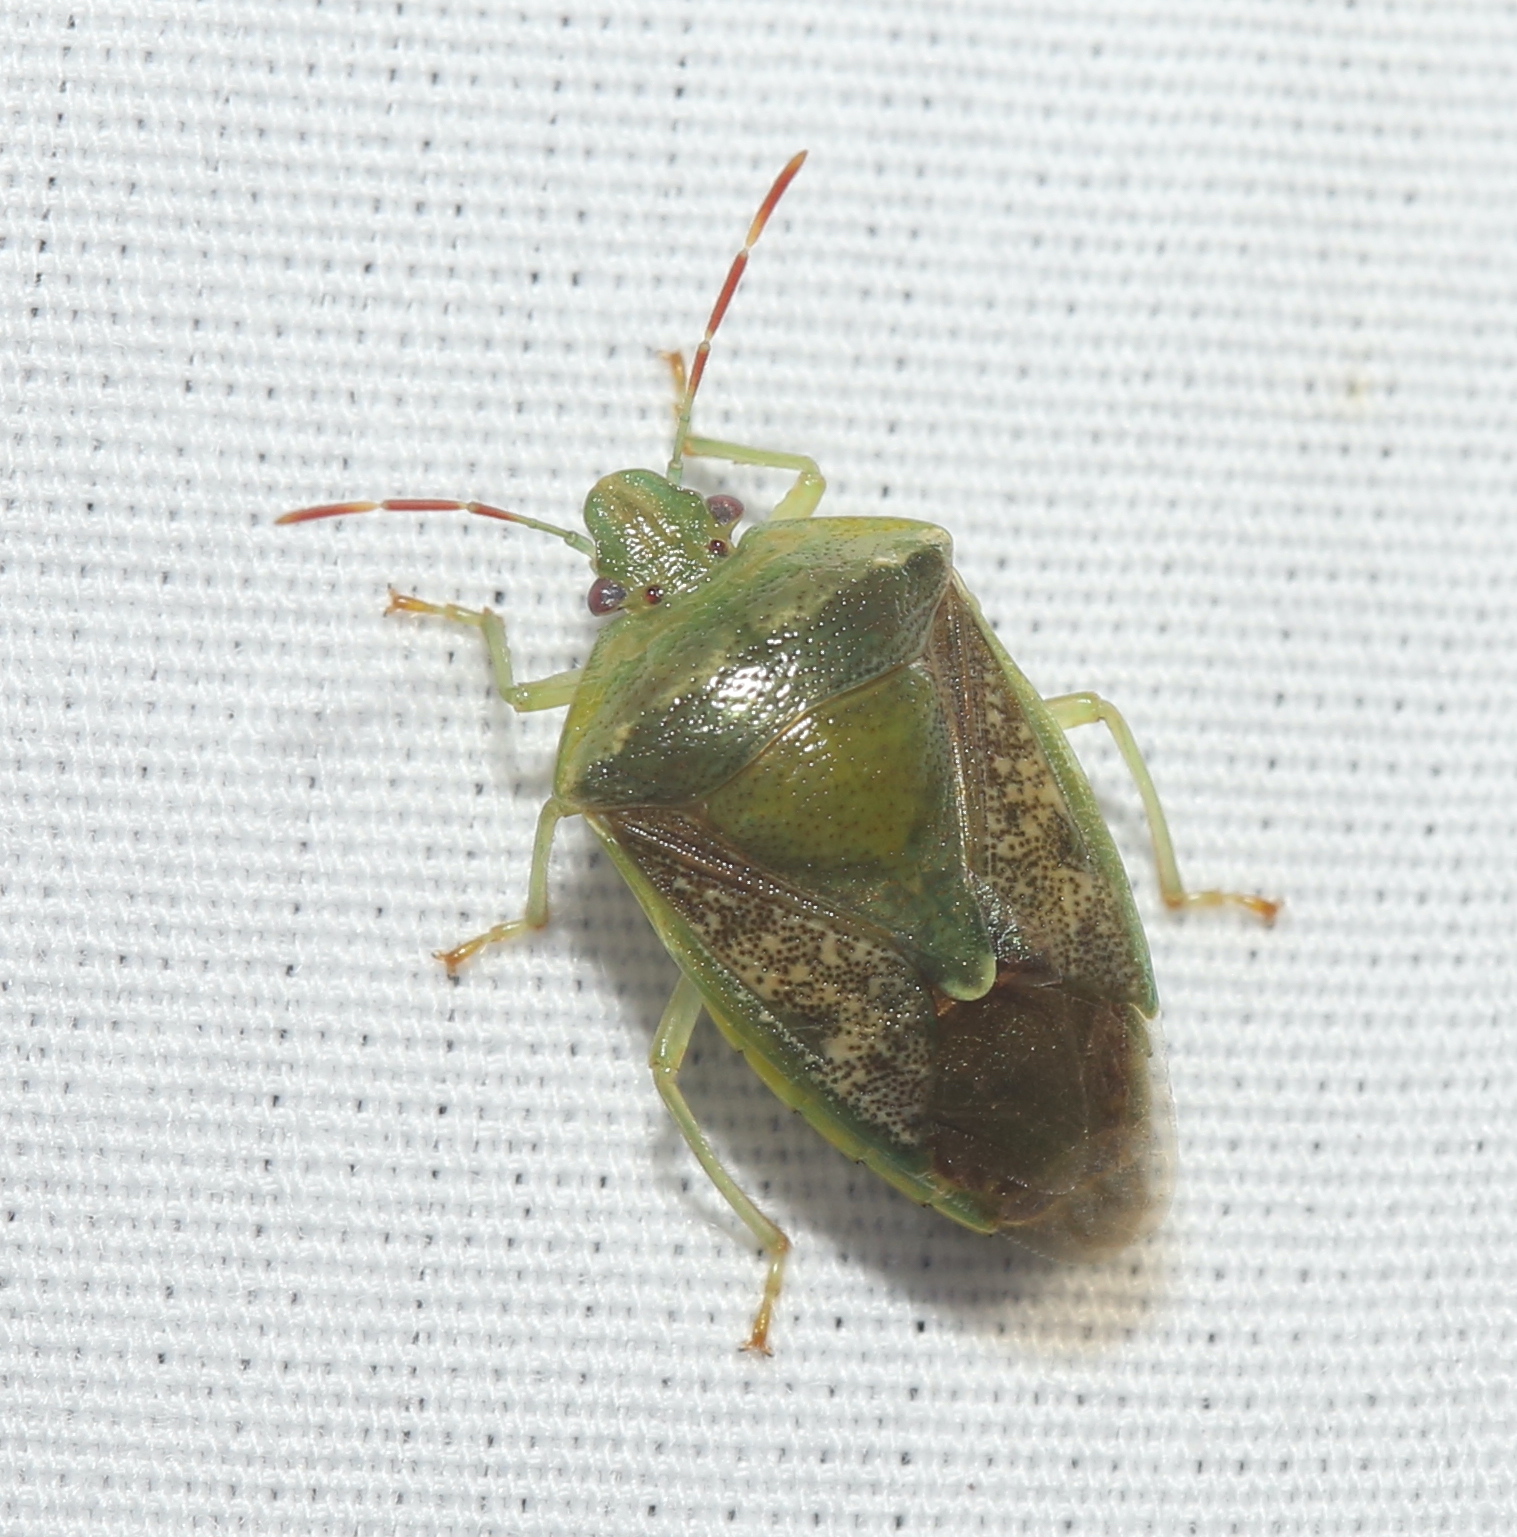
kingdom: Animalia
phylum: Arthropoda
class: Insecta
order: Hemiptera
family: Pentatomidae
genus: Banasa
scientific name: Banasa calva
